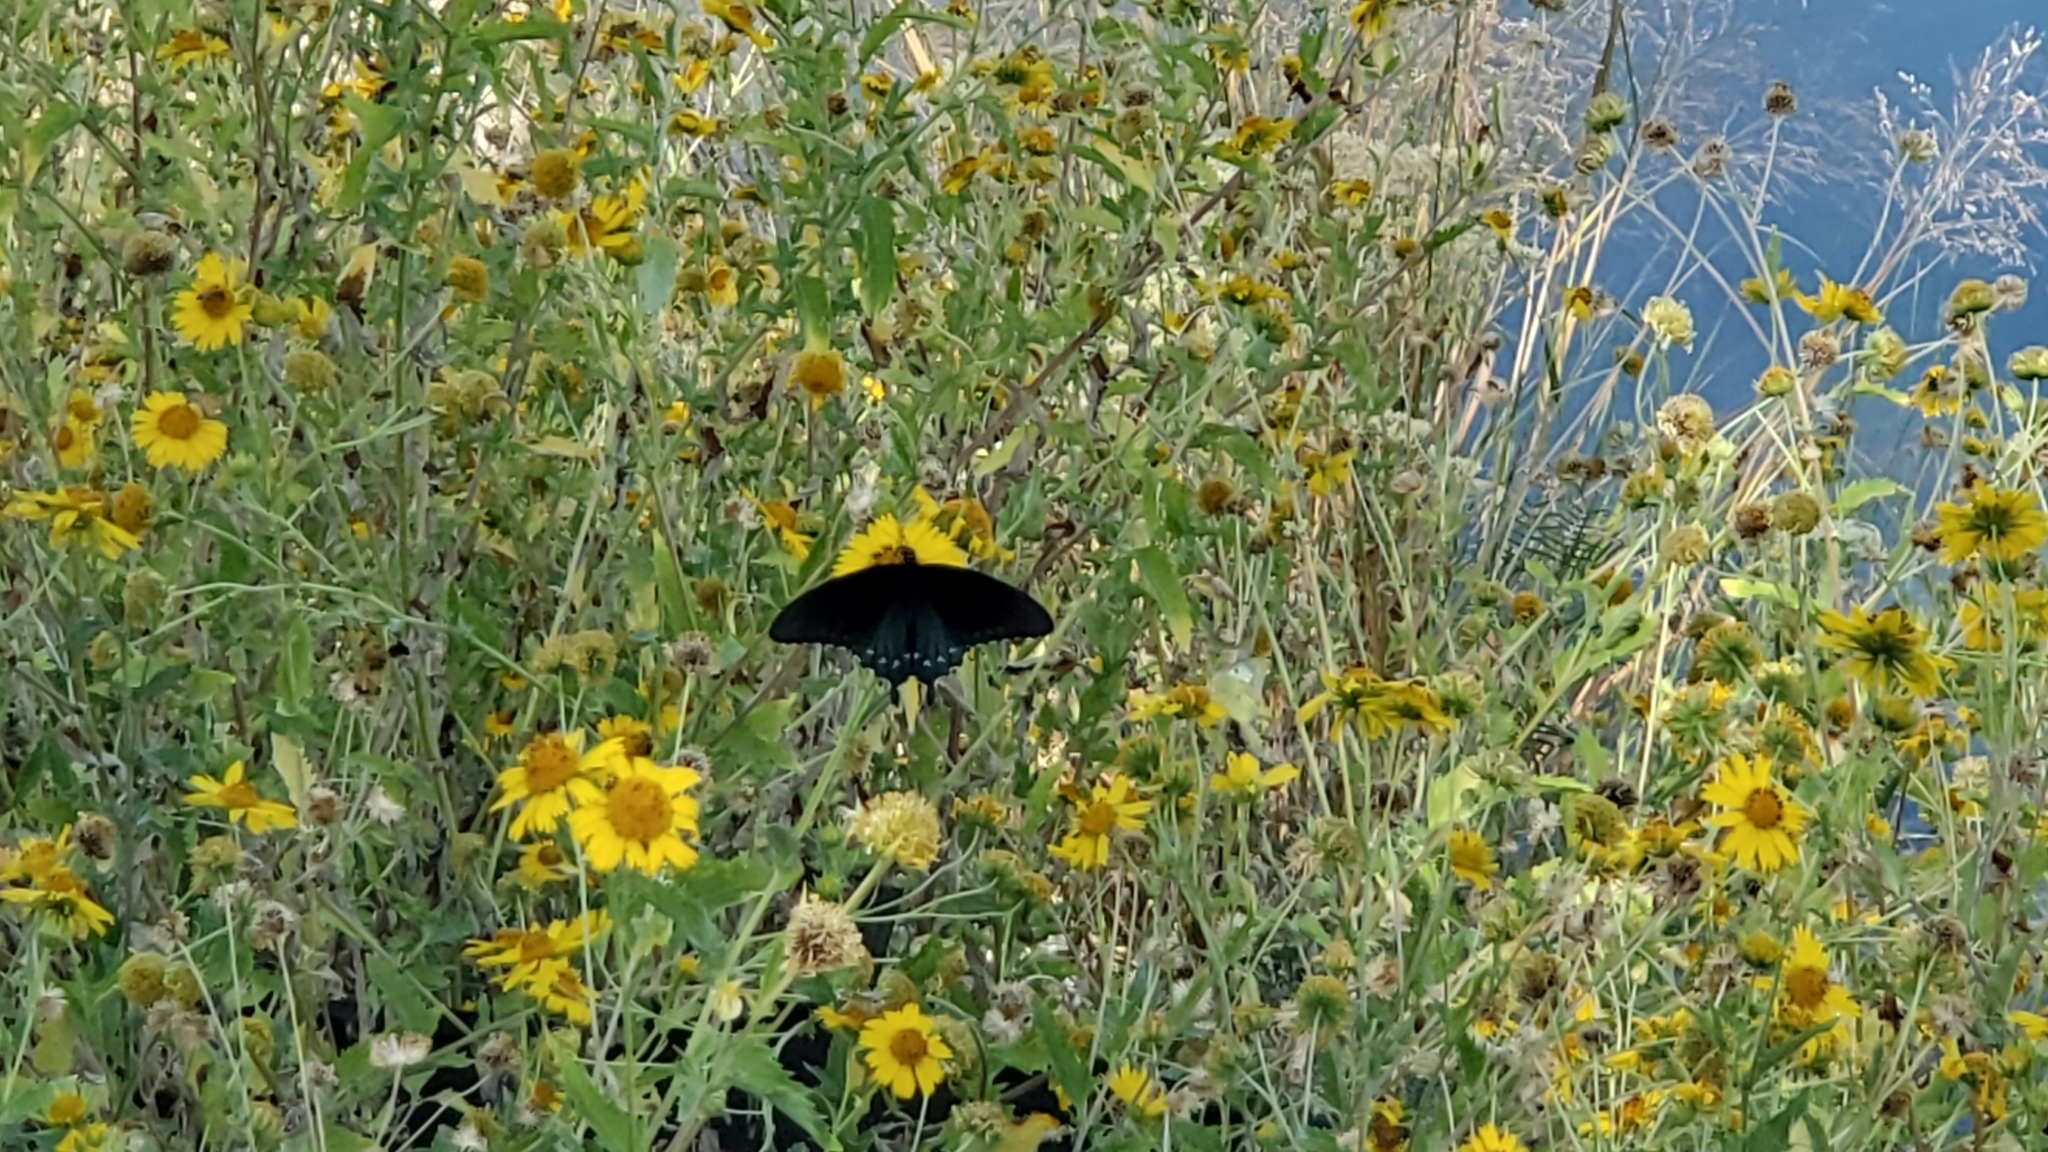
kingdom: Animalia
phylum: Arthropoda
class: Insecta
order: Lepidoptera
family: Papilionidae
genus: Battus
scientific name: Battus philenor
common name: Pipevine swallowtail
